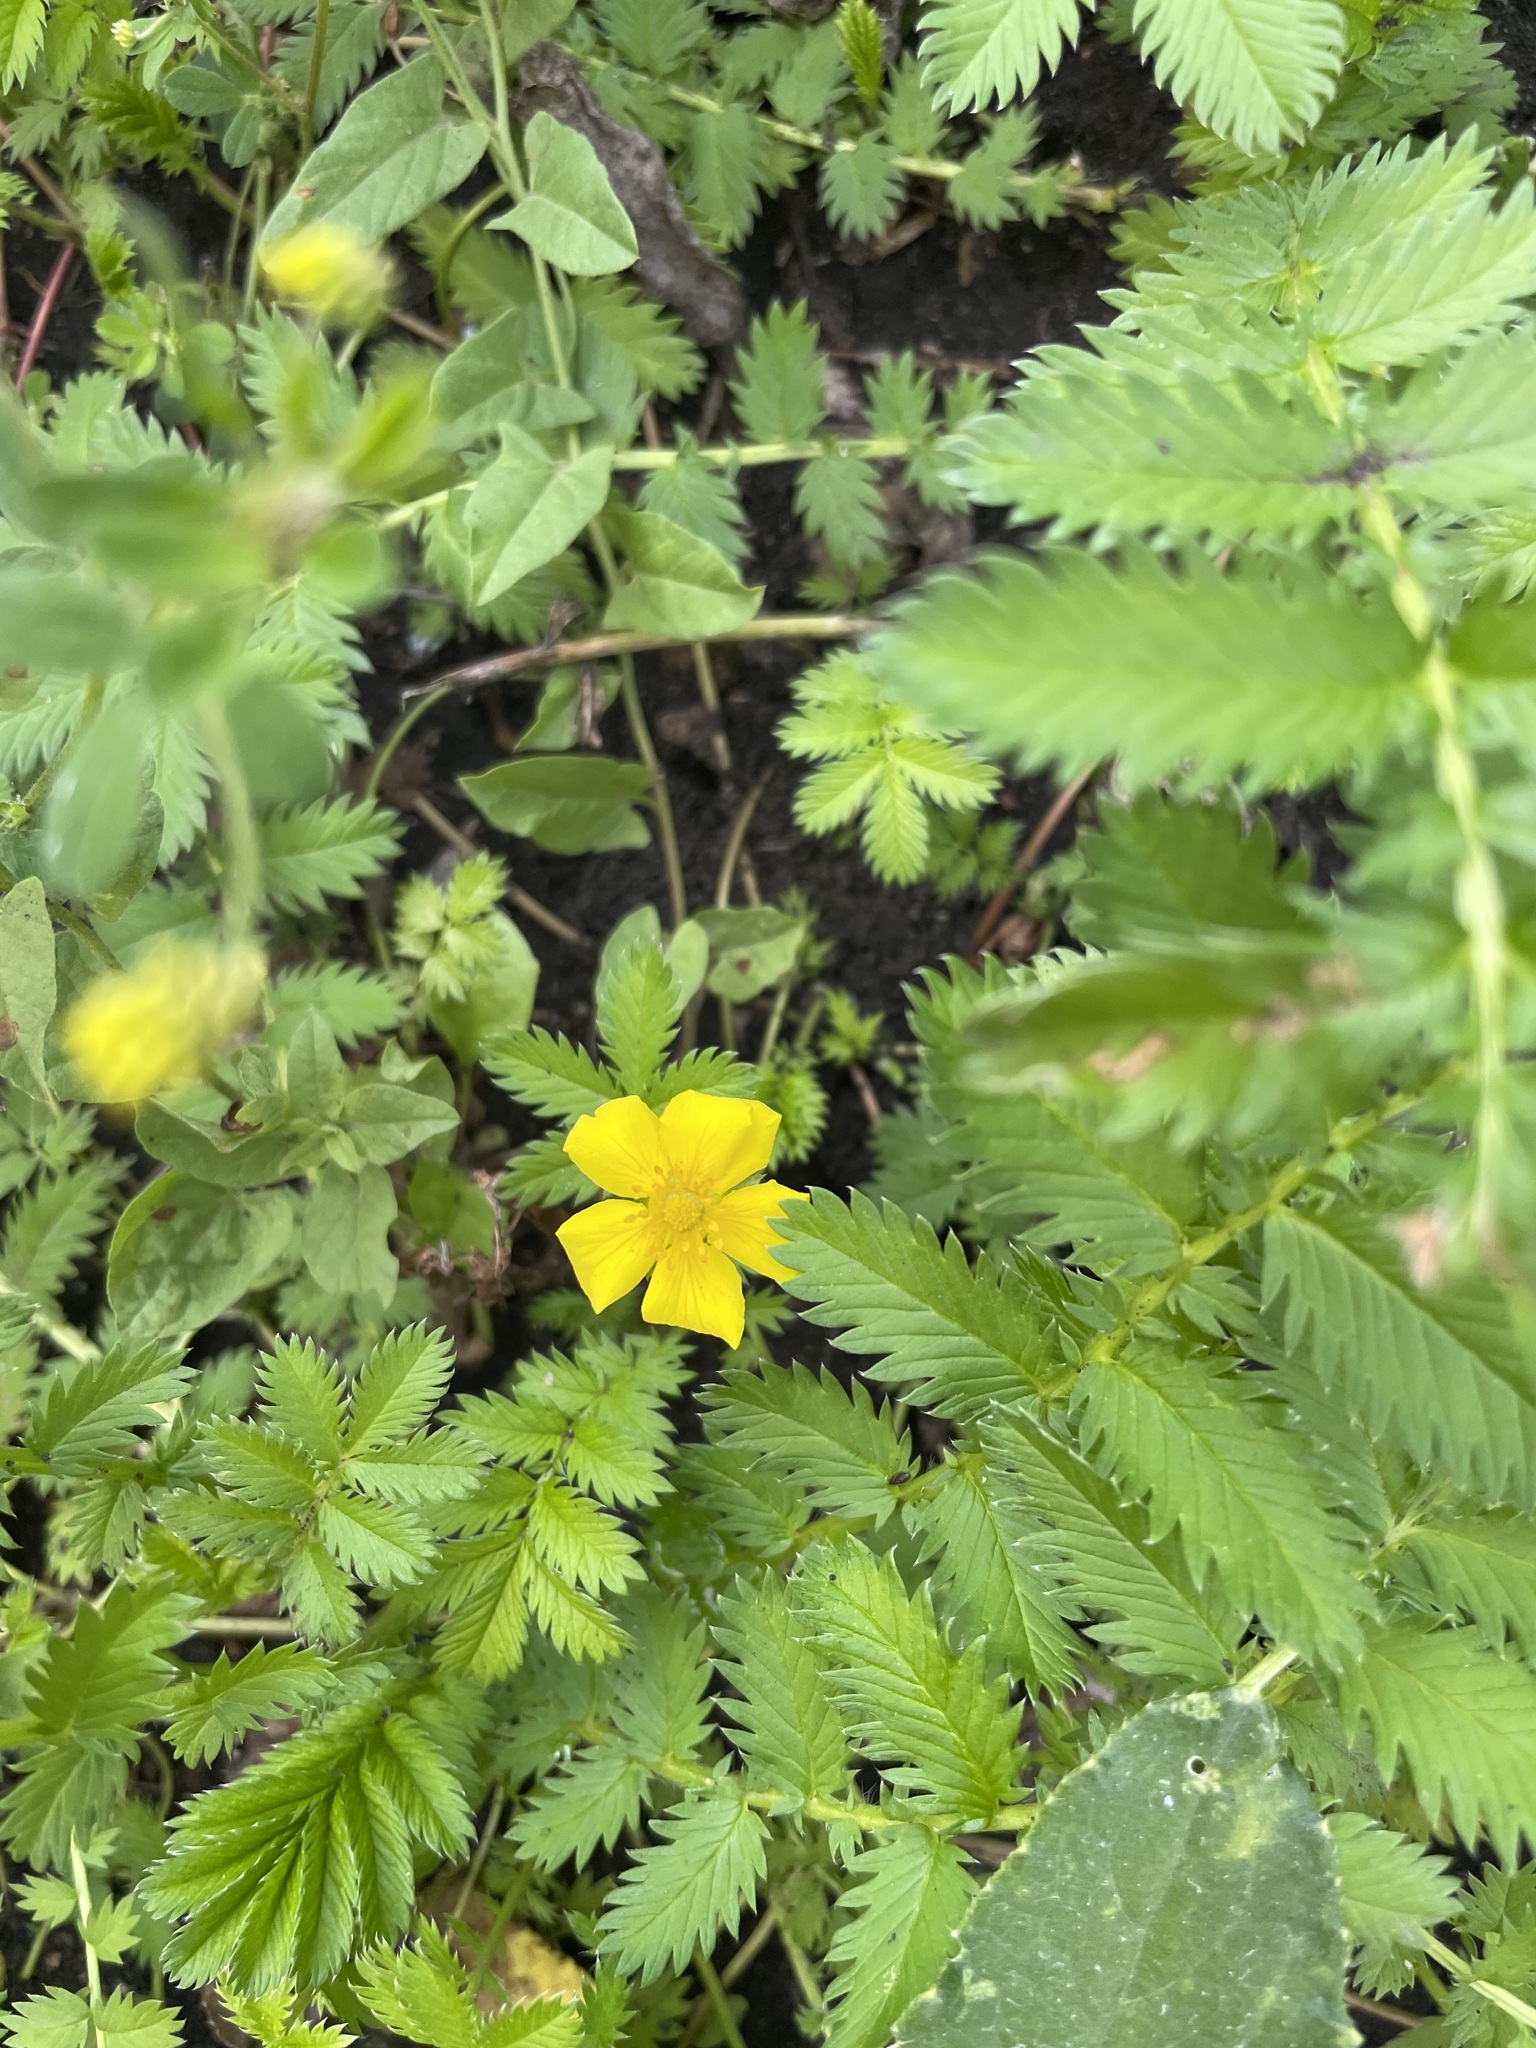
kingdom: Plantae
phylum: Tracheophyta
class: Magnoliopsida
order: Rosales
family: Rosaceae
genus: Argentina
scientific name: Argentina anserina
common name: Common silverweed
